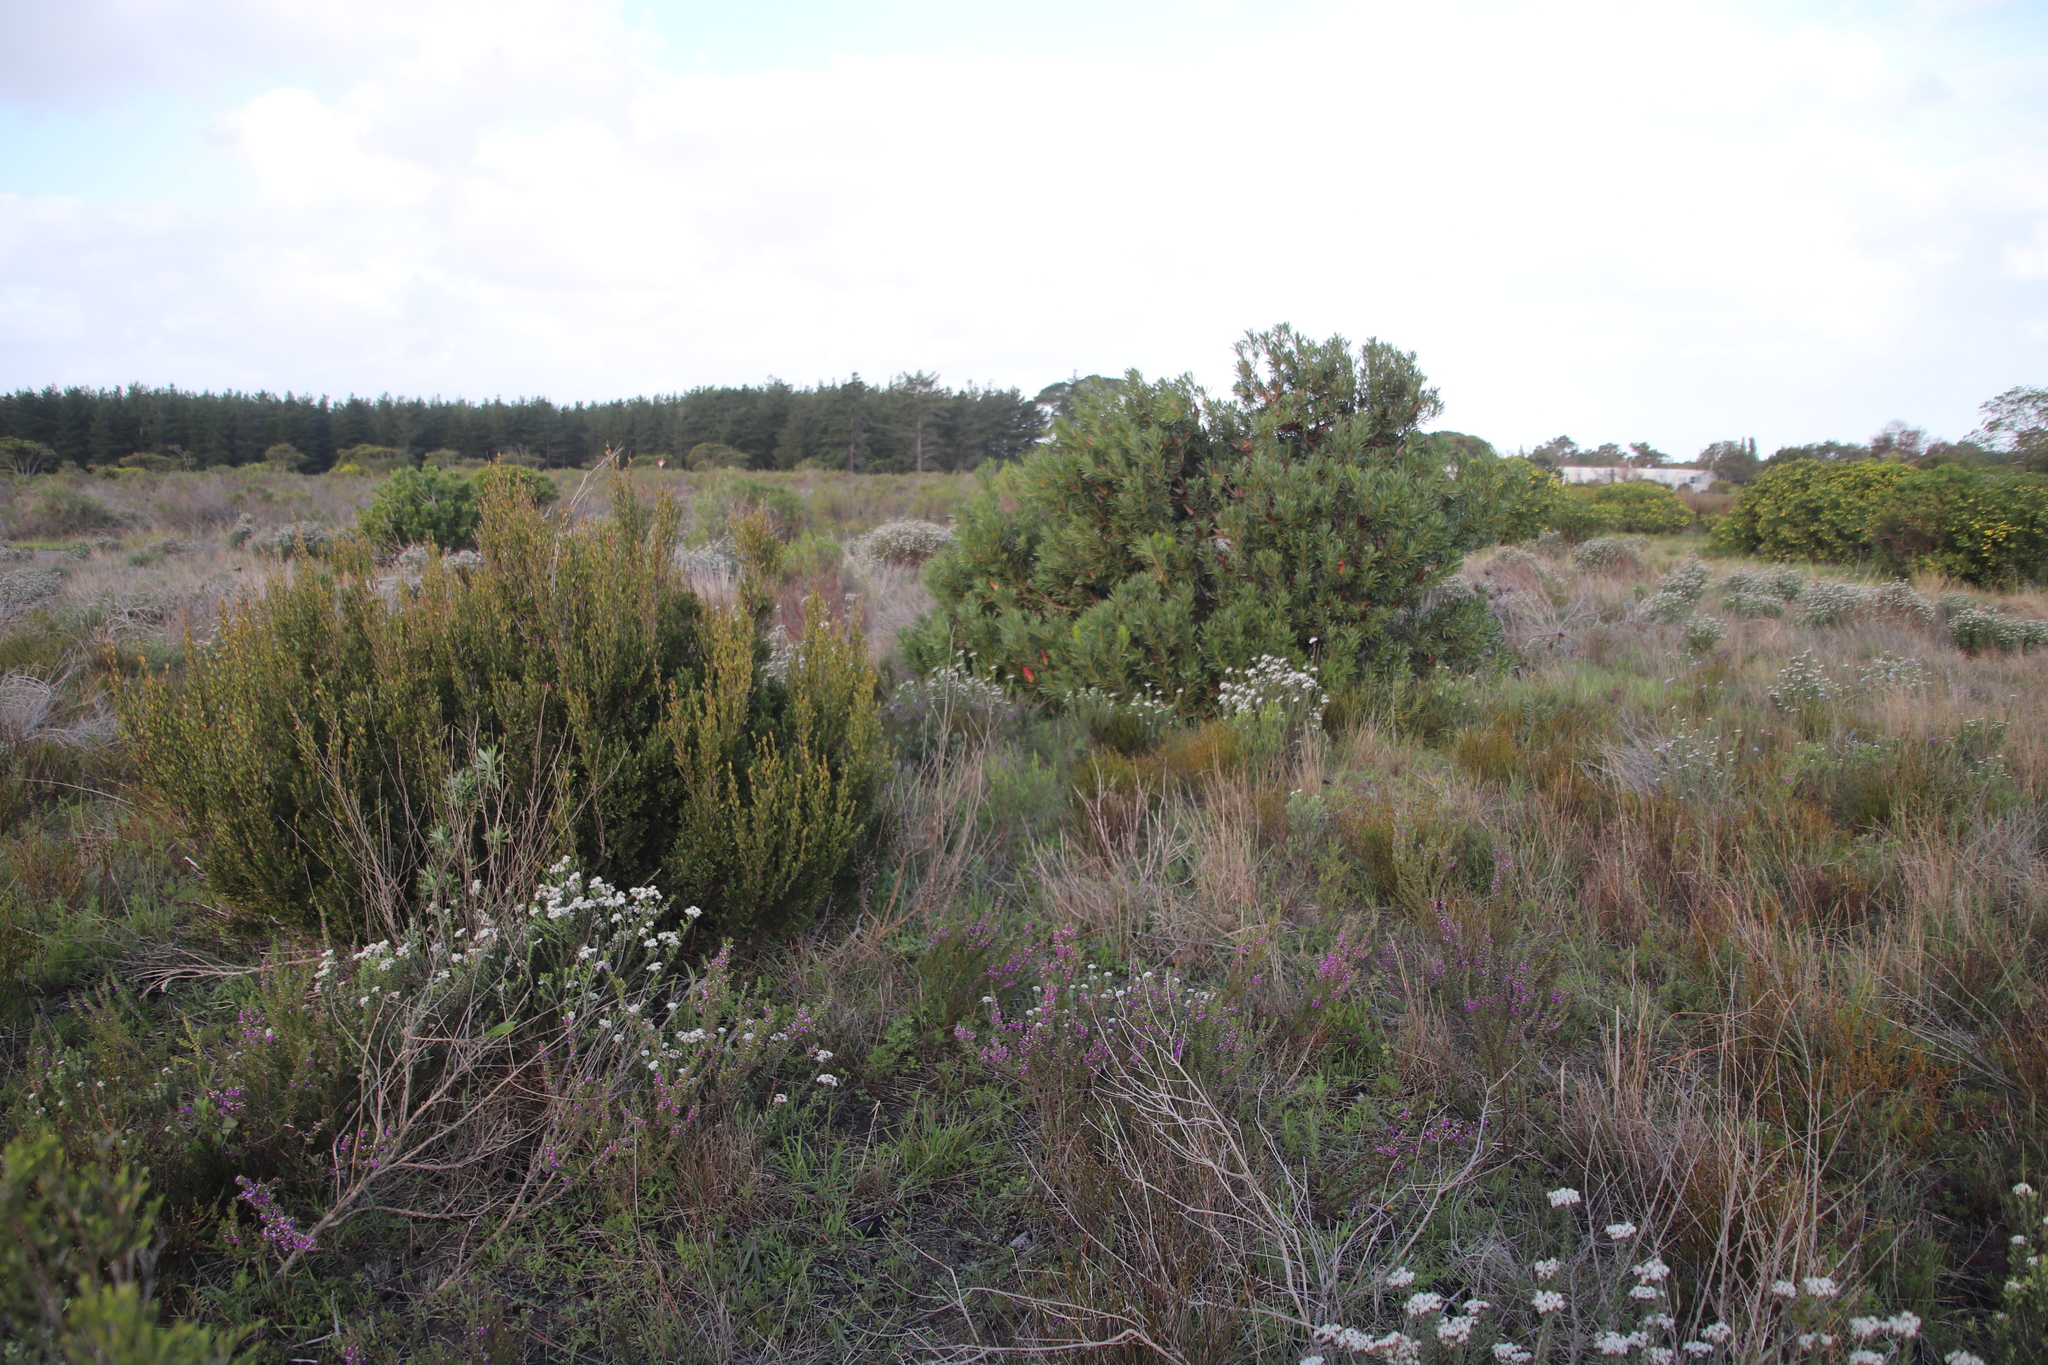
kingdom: Plantae
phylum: Tracheophyta
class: Magnoliopsida
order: Proteales
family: Proteaceae
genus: Protea
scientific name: Protea repens
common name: Sugarbush
